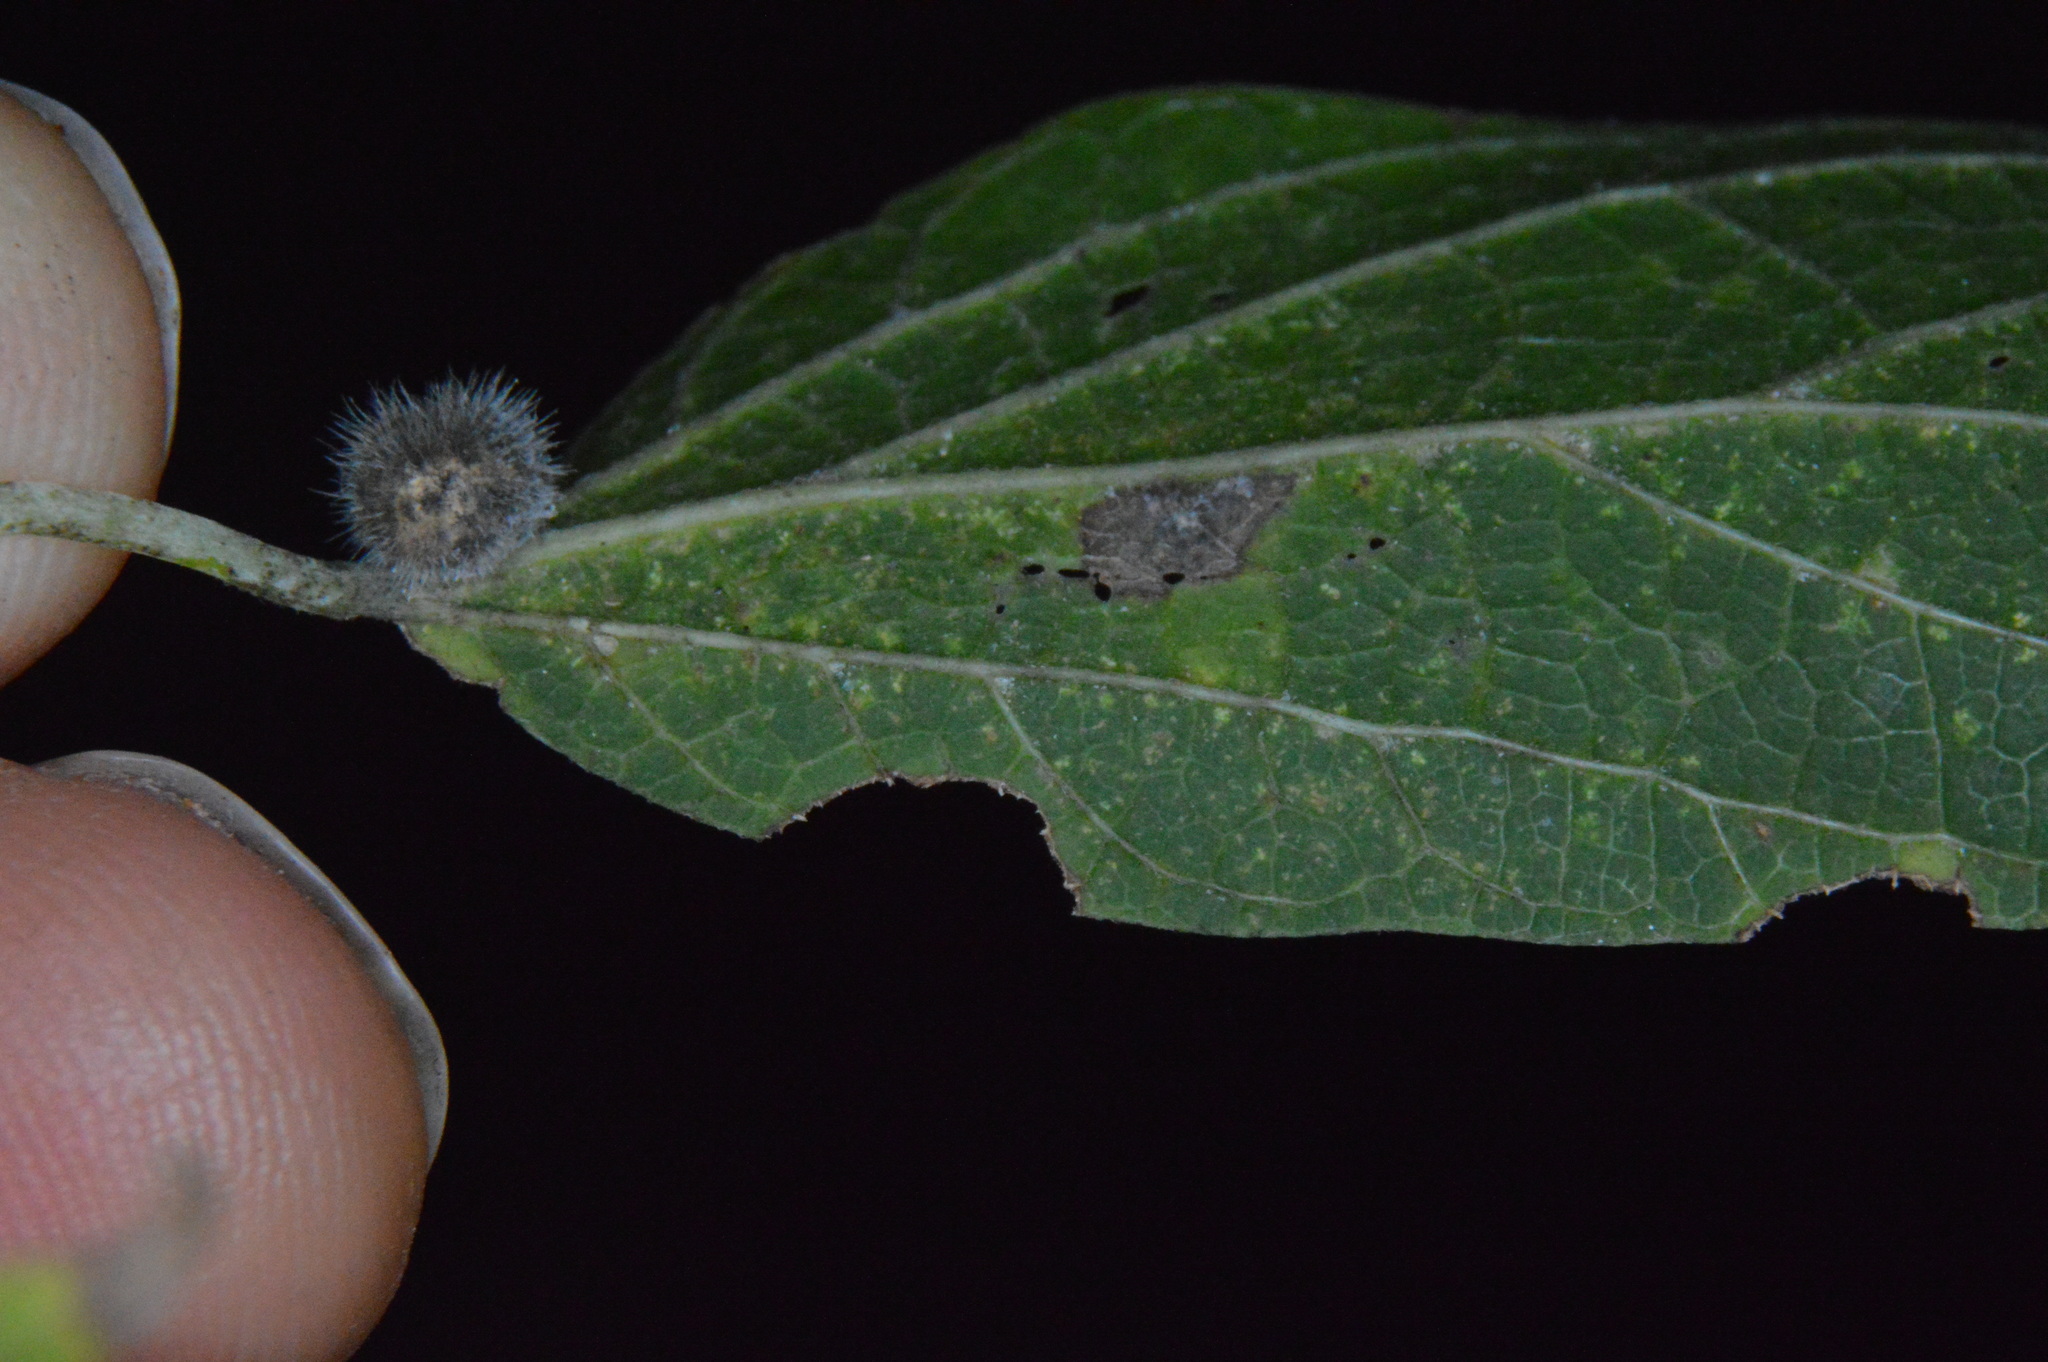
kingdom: Animalia
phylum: Arthropoda
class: Insecta
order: Diptera
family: Cecidomyiidae
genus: Celticecis
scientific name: Celticecis pubescens
